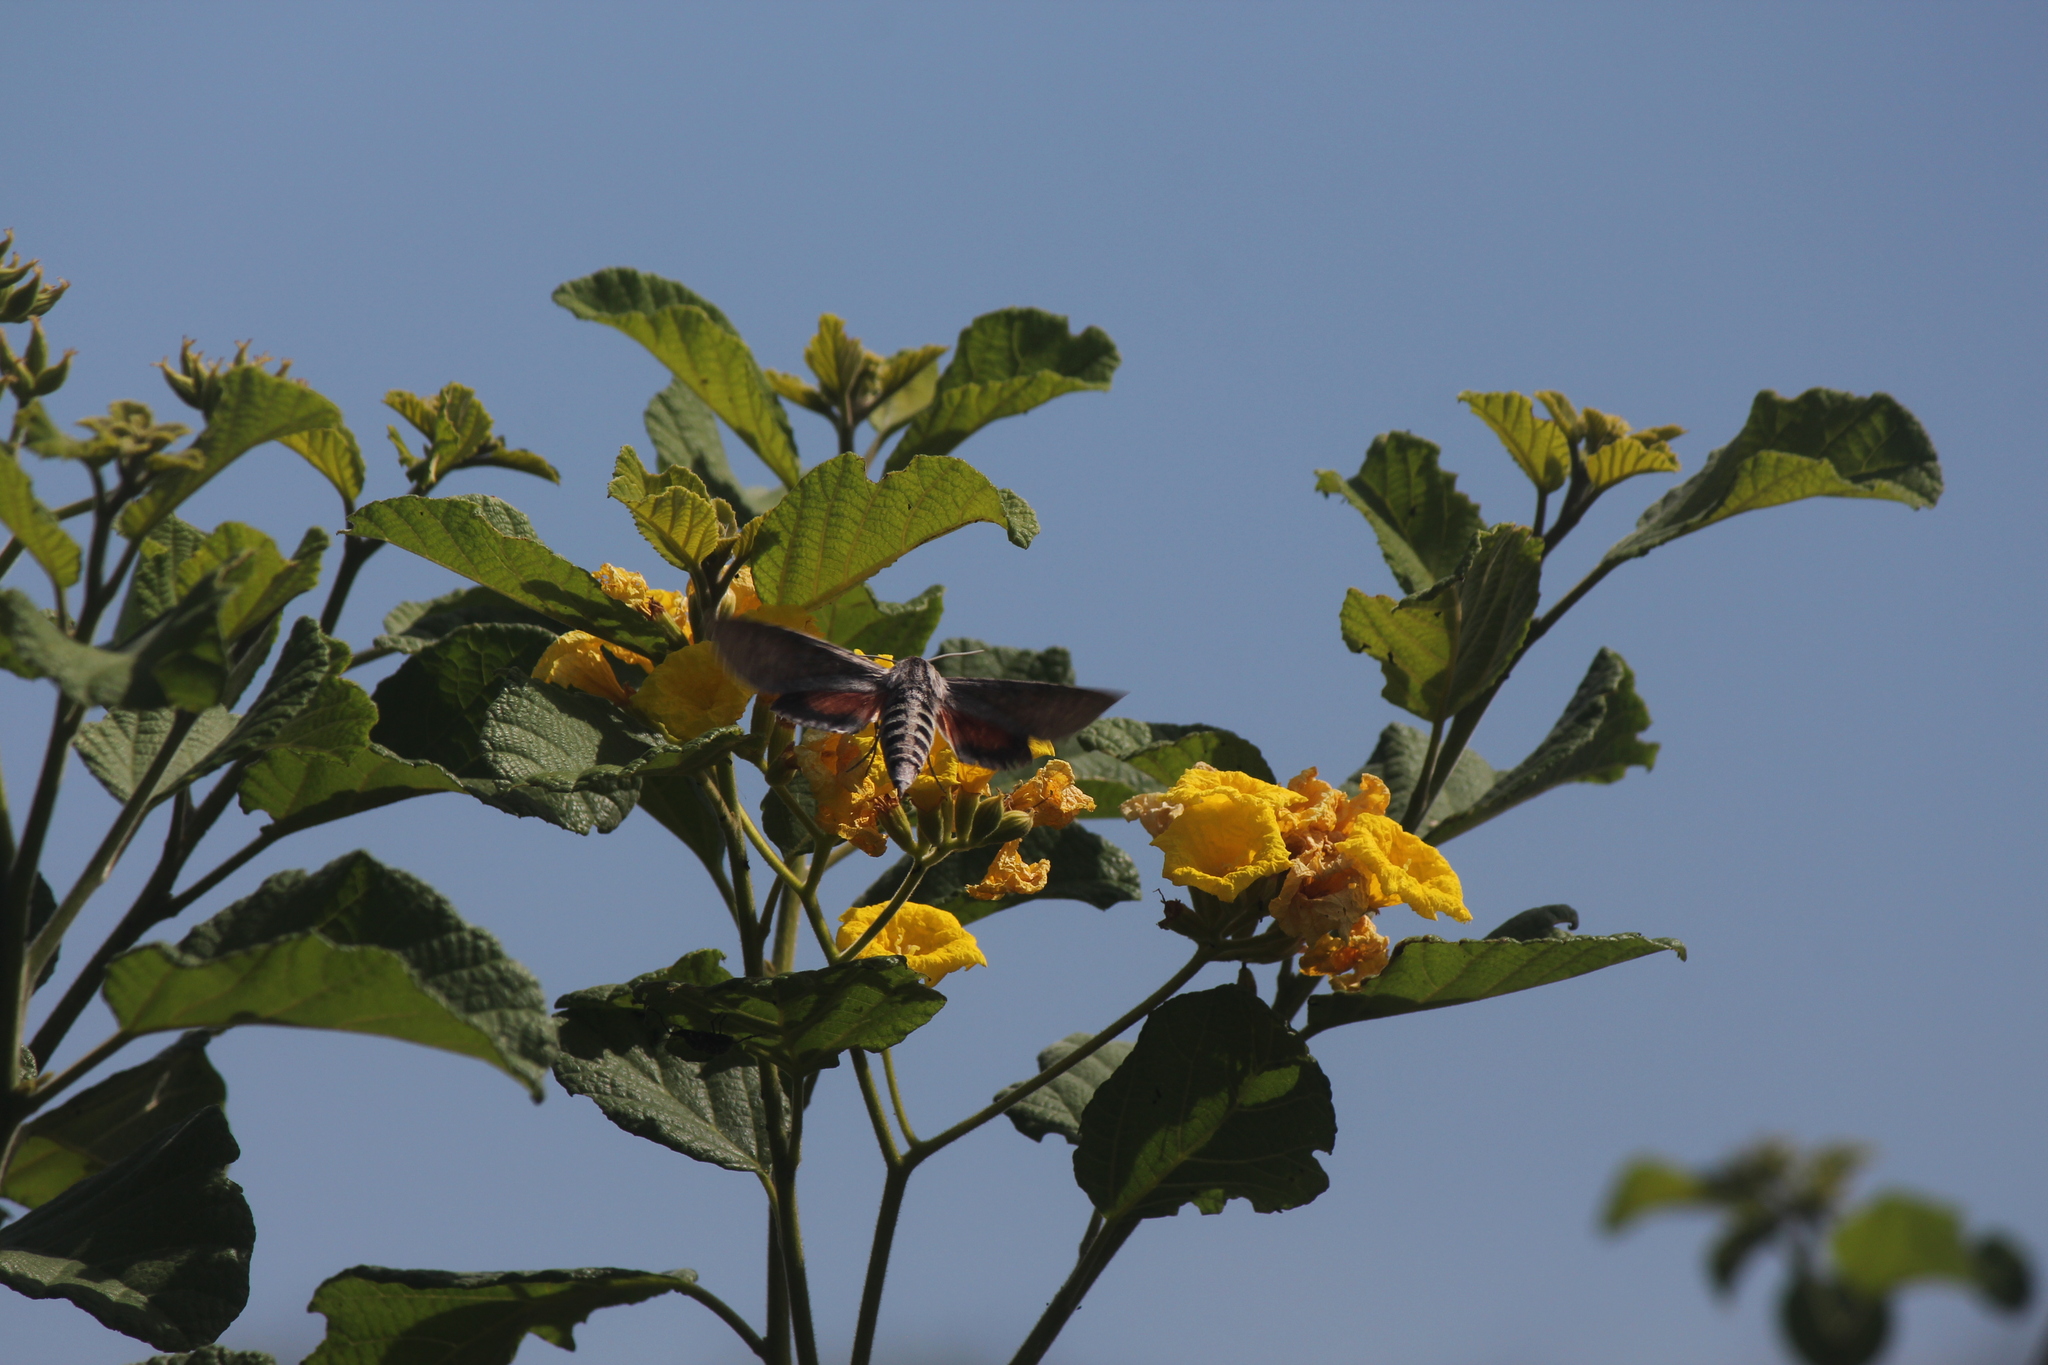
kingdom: Animalia
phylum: Arthropoda
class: Insecta
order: Lepidoptera
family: Sphingidae
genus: Erinnyis
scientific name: Erinnyis ello
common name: Ello sphinx
